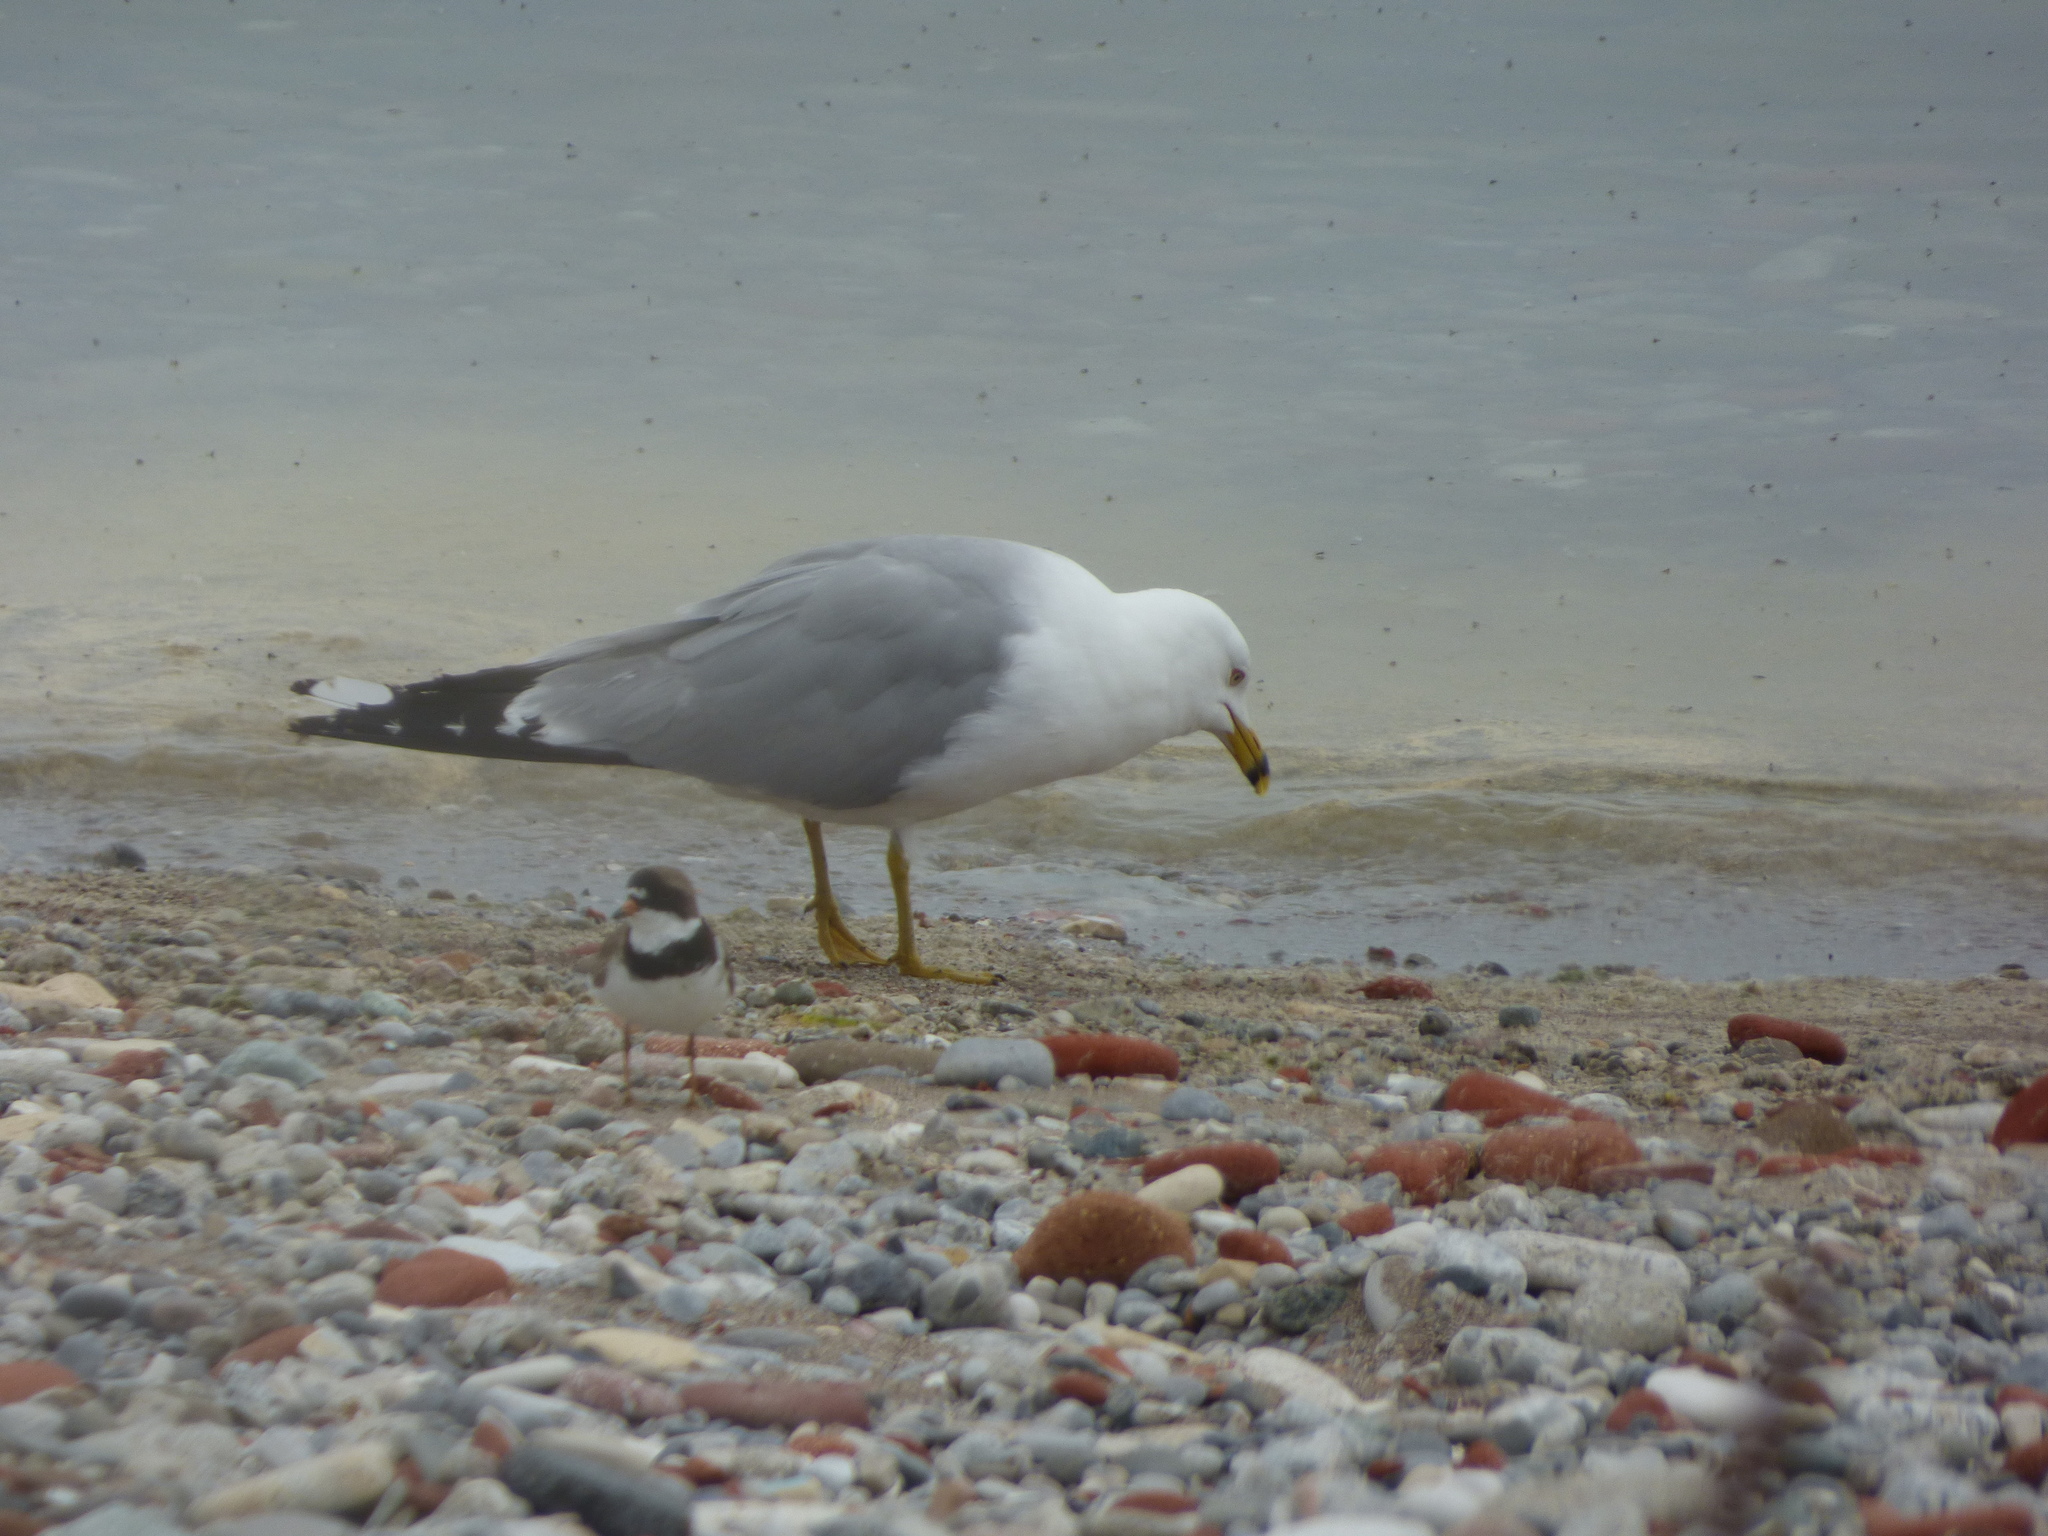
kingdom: Animalia
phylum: Chordata
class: Aves
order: Charadriiformes
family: Charadriidae
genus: Charadrius
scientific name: Charadrius semipalmatus
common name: Semipalmated plover
